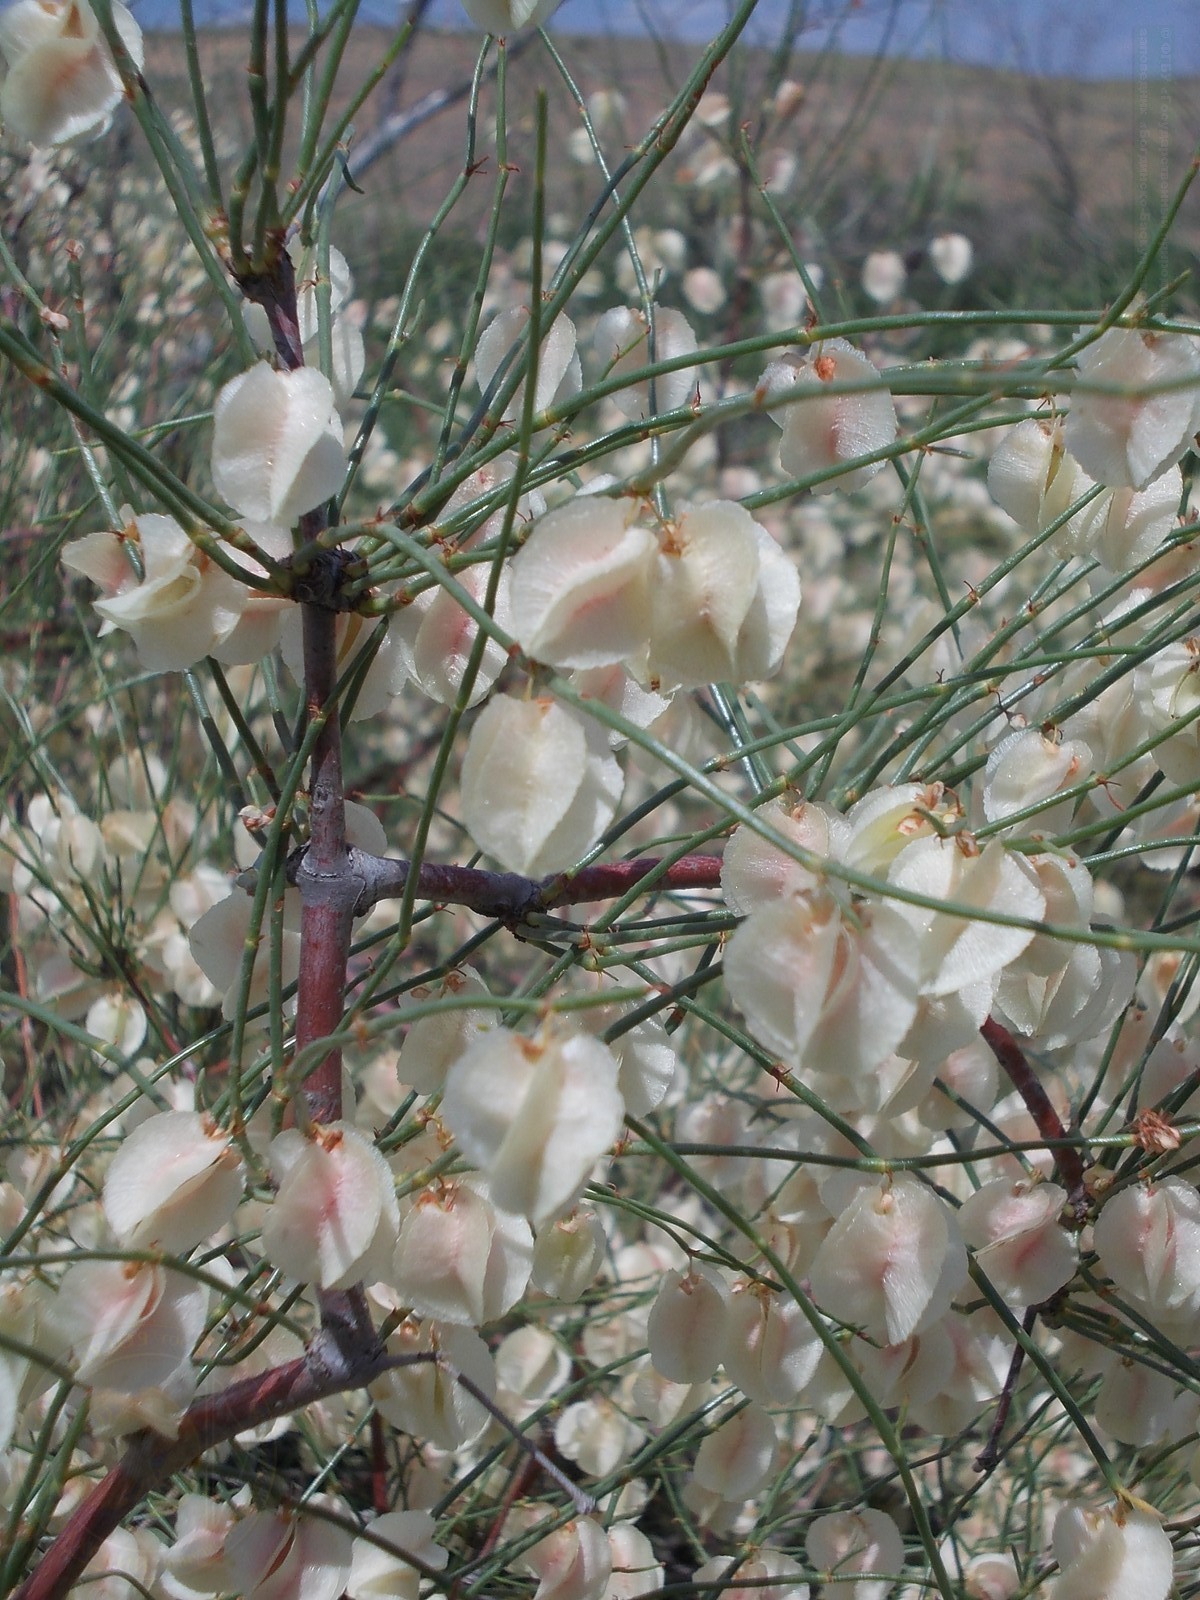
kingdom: Plantae
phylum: Tracheophyta
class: Magnoliopsida
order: Caryophyllales
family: Polygonaceae
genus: Calligonum
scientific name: Calligonum aphyllum
